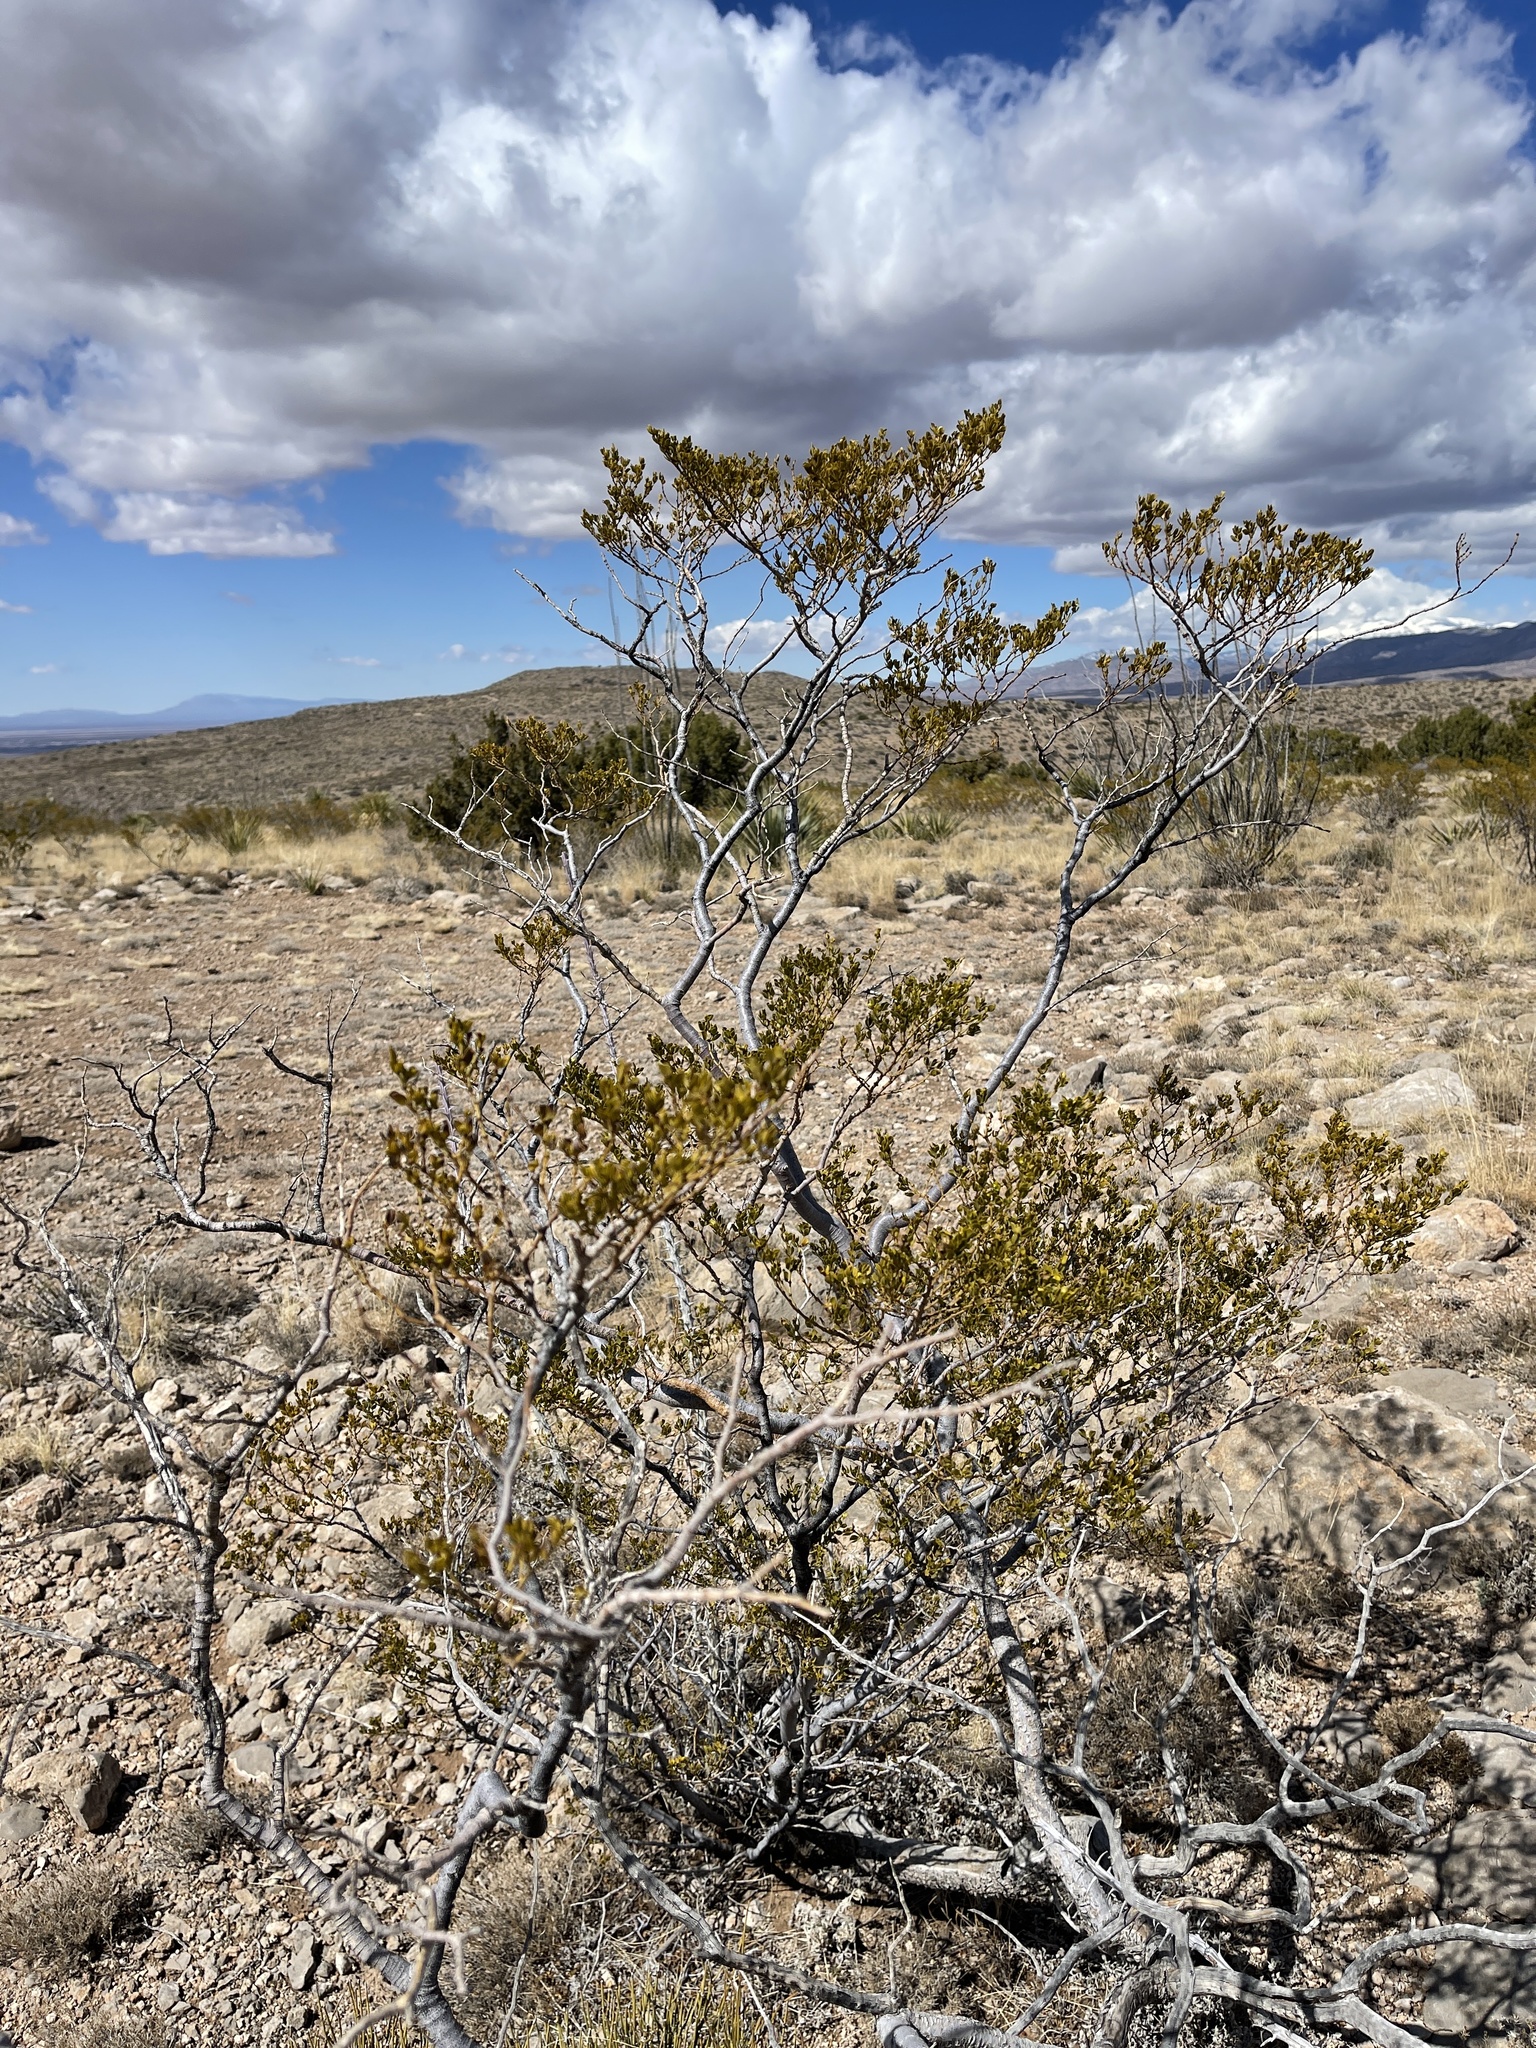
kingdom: Plantae
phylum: Tracheophyta
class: Magnoliopsida
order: Zygophyllales
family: Zygophyllaceae
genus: Larrea
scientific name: Larrea tridentata
